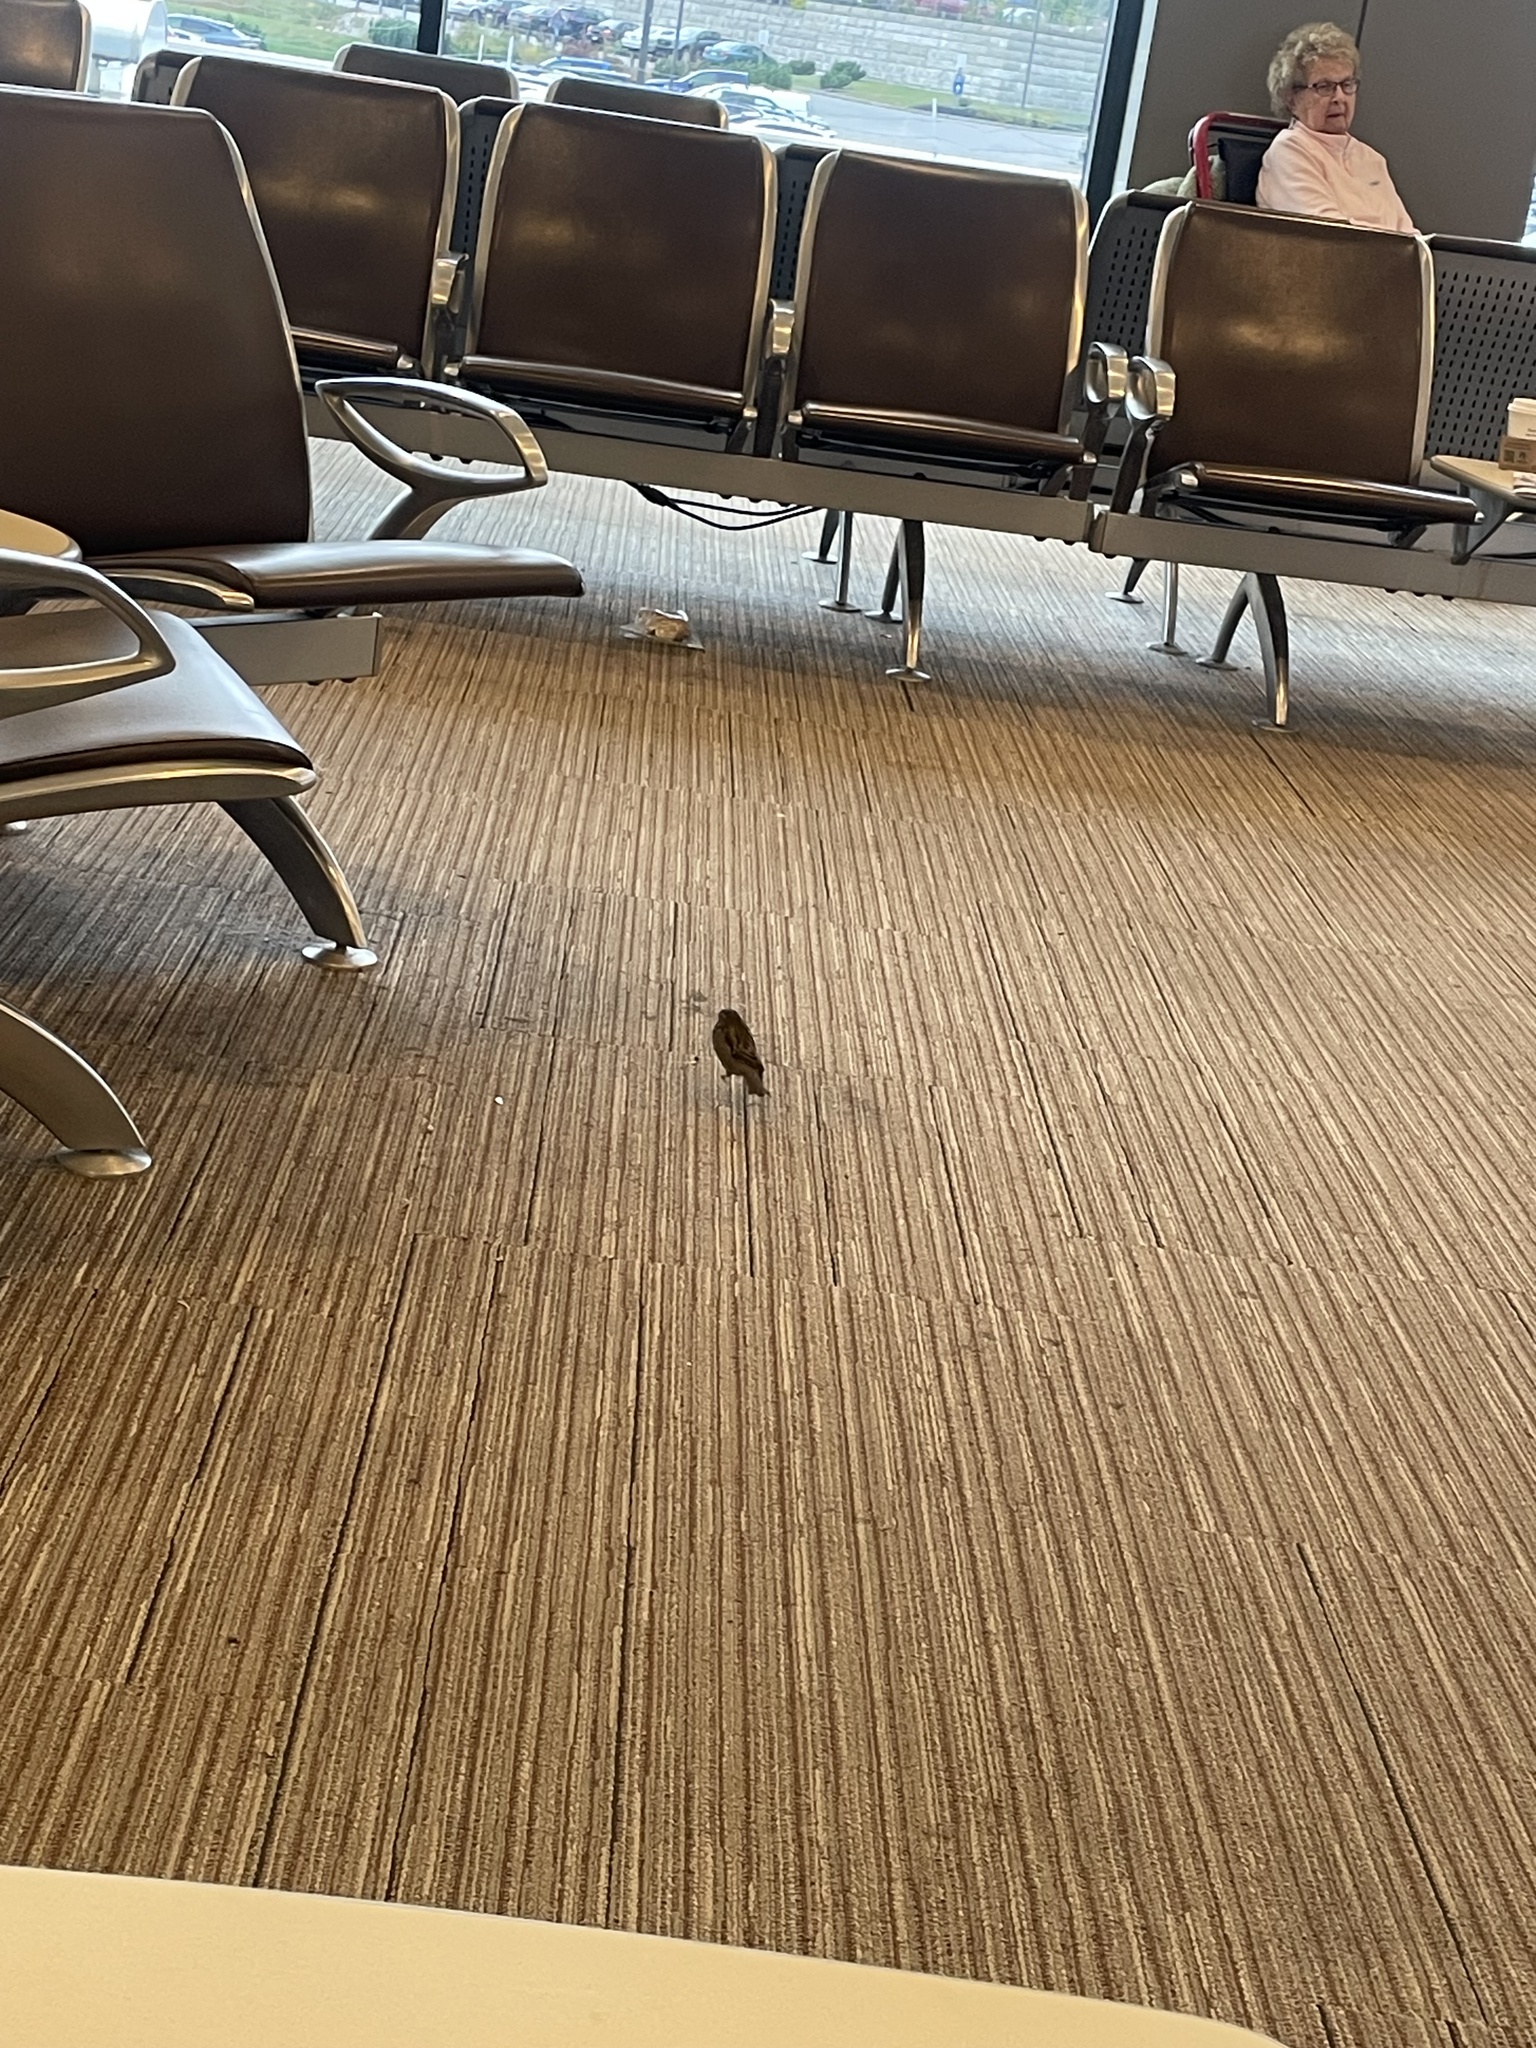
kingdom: Animalia
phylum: Chordata
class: Aves
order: Passeriformes
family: Passeridae
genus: Passer
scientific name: Passer domesticus
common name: House sparrow
